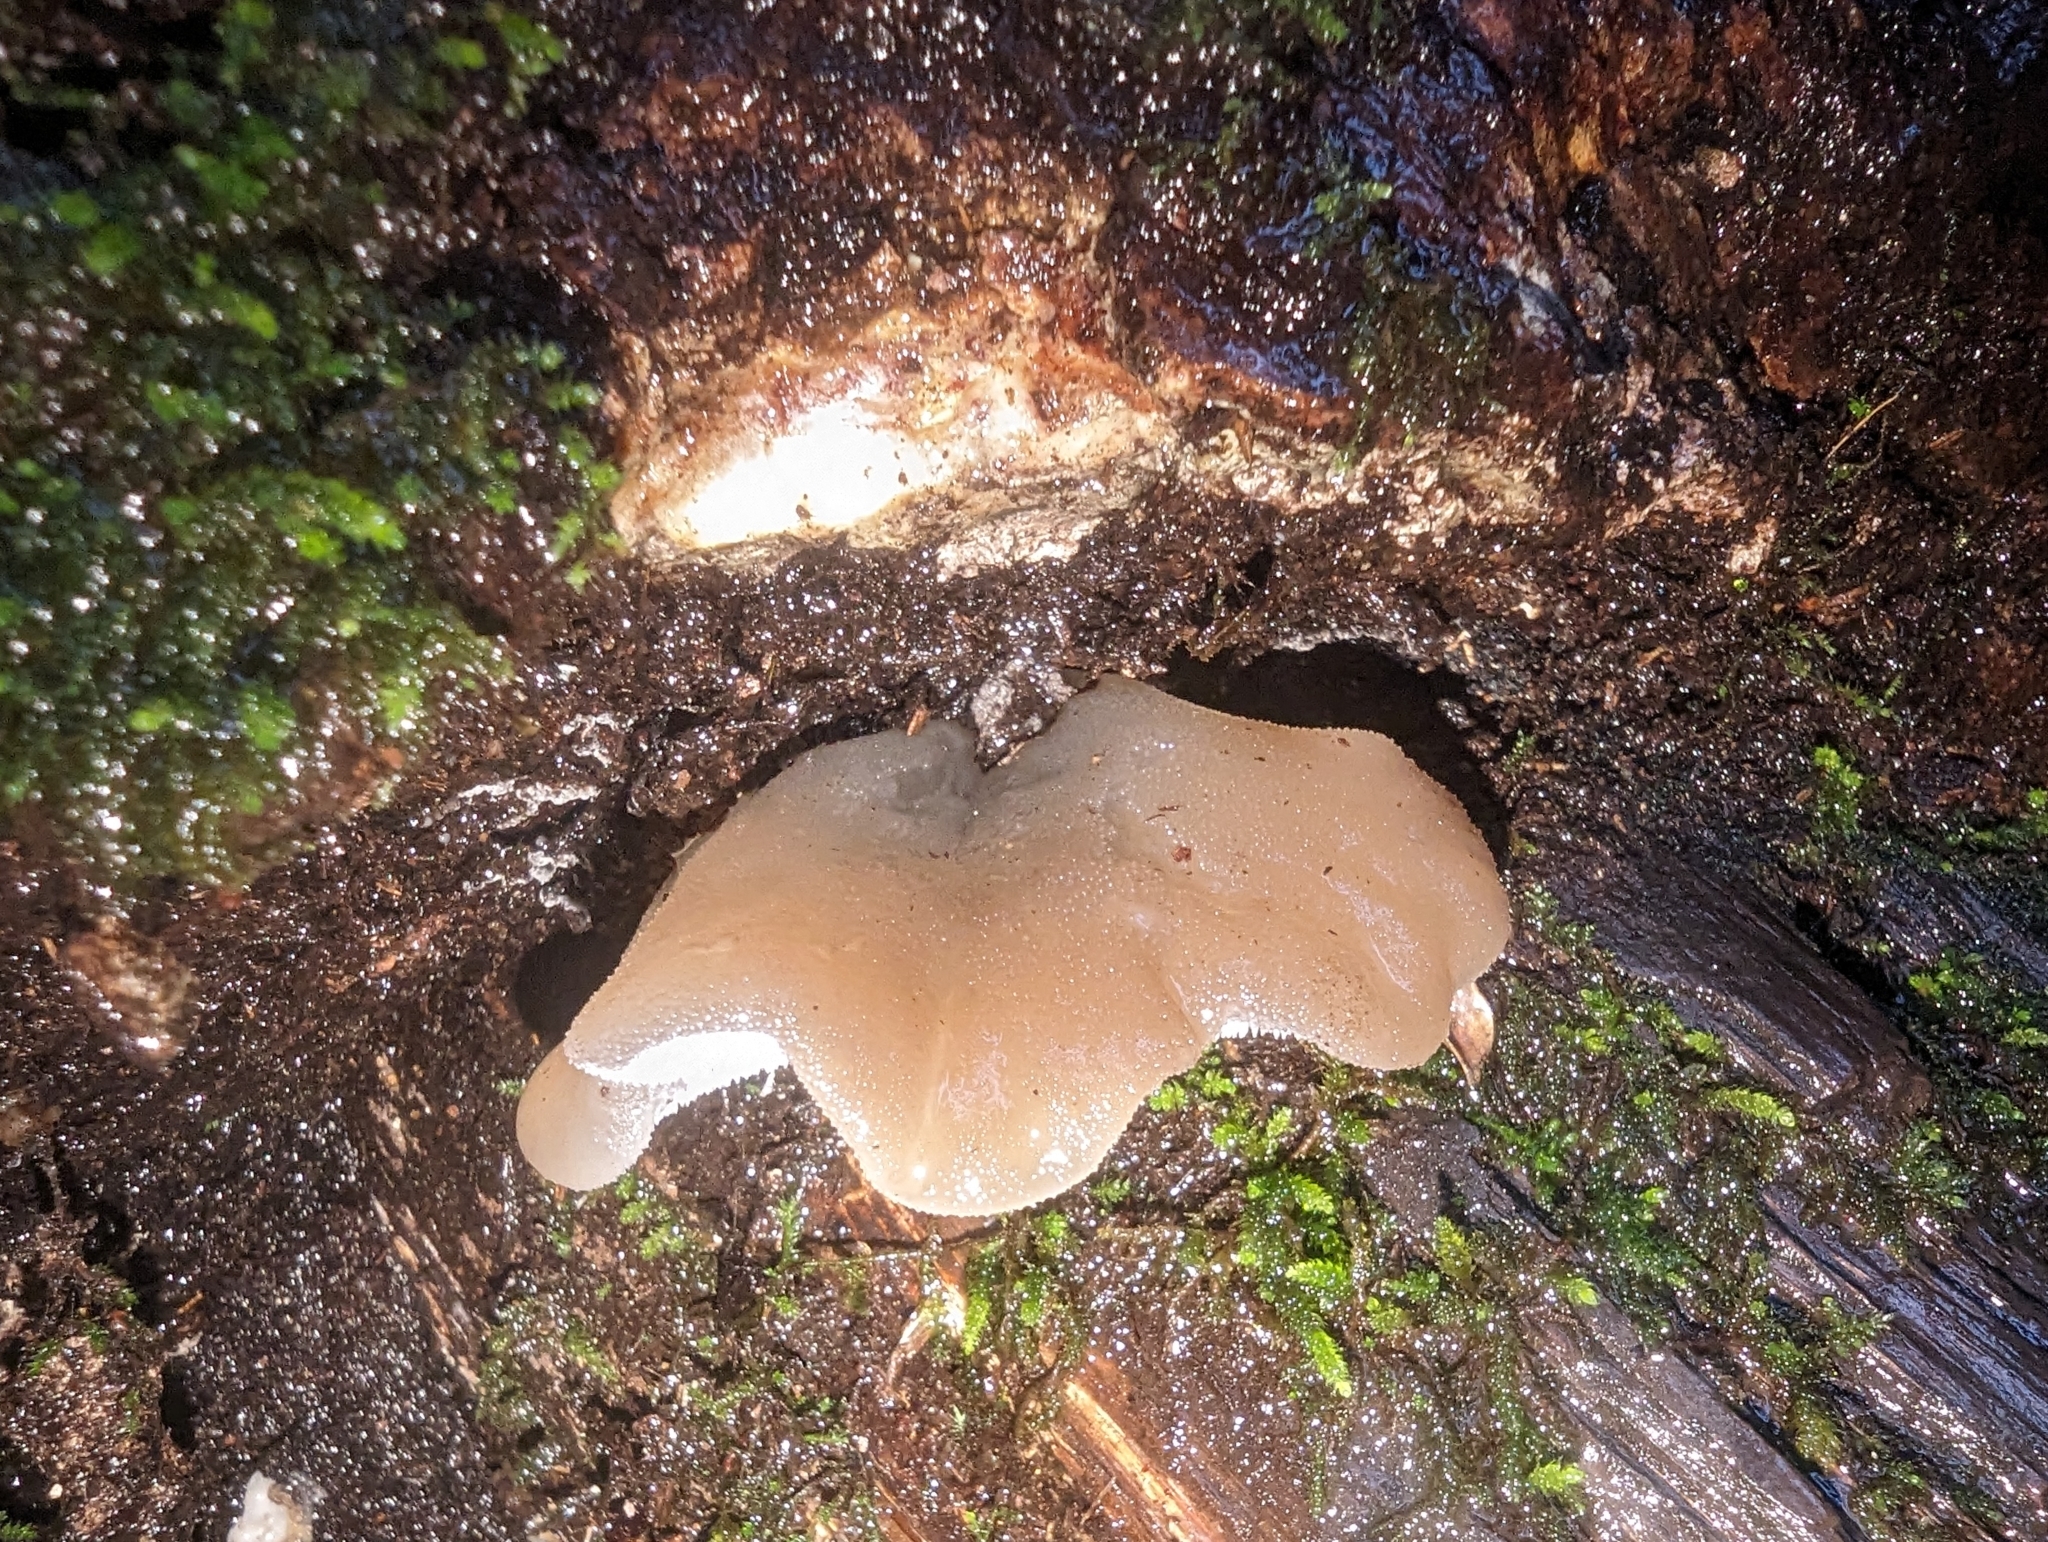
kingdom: Fungi
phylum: Basidiomycota
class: Agaricomycetes
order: Auriculariales
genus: Pseudohydnum
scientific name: Pseudohydnum gelatinosum
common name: Jelly tongue
